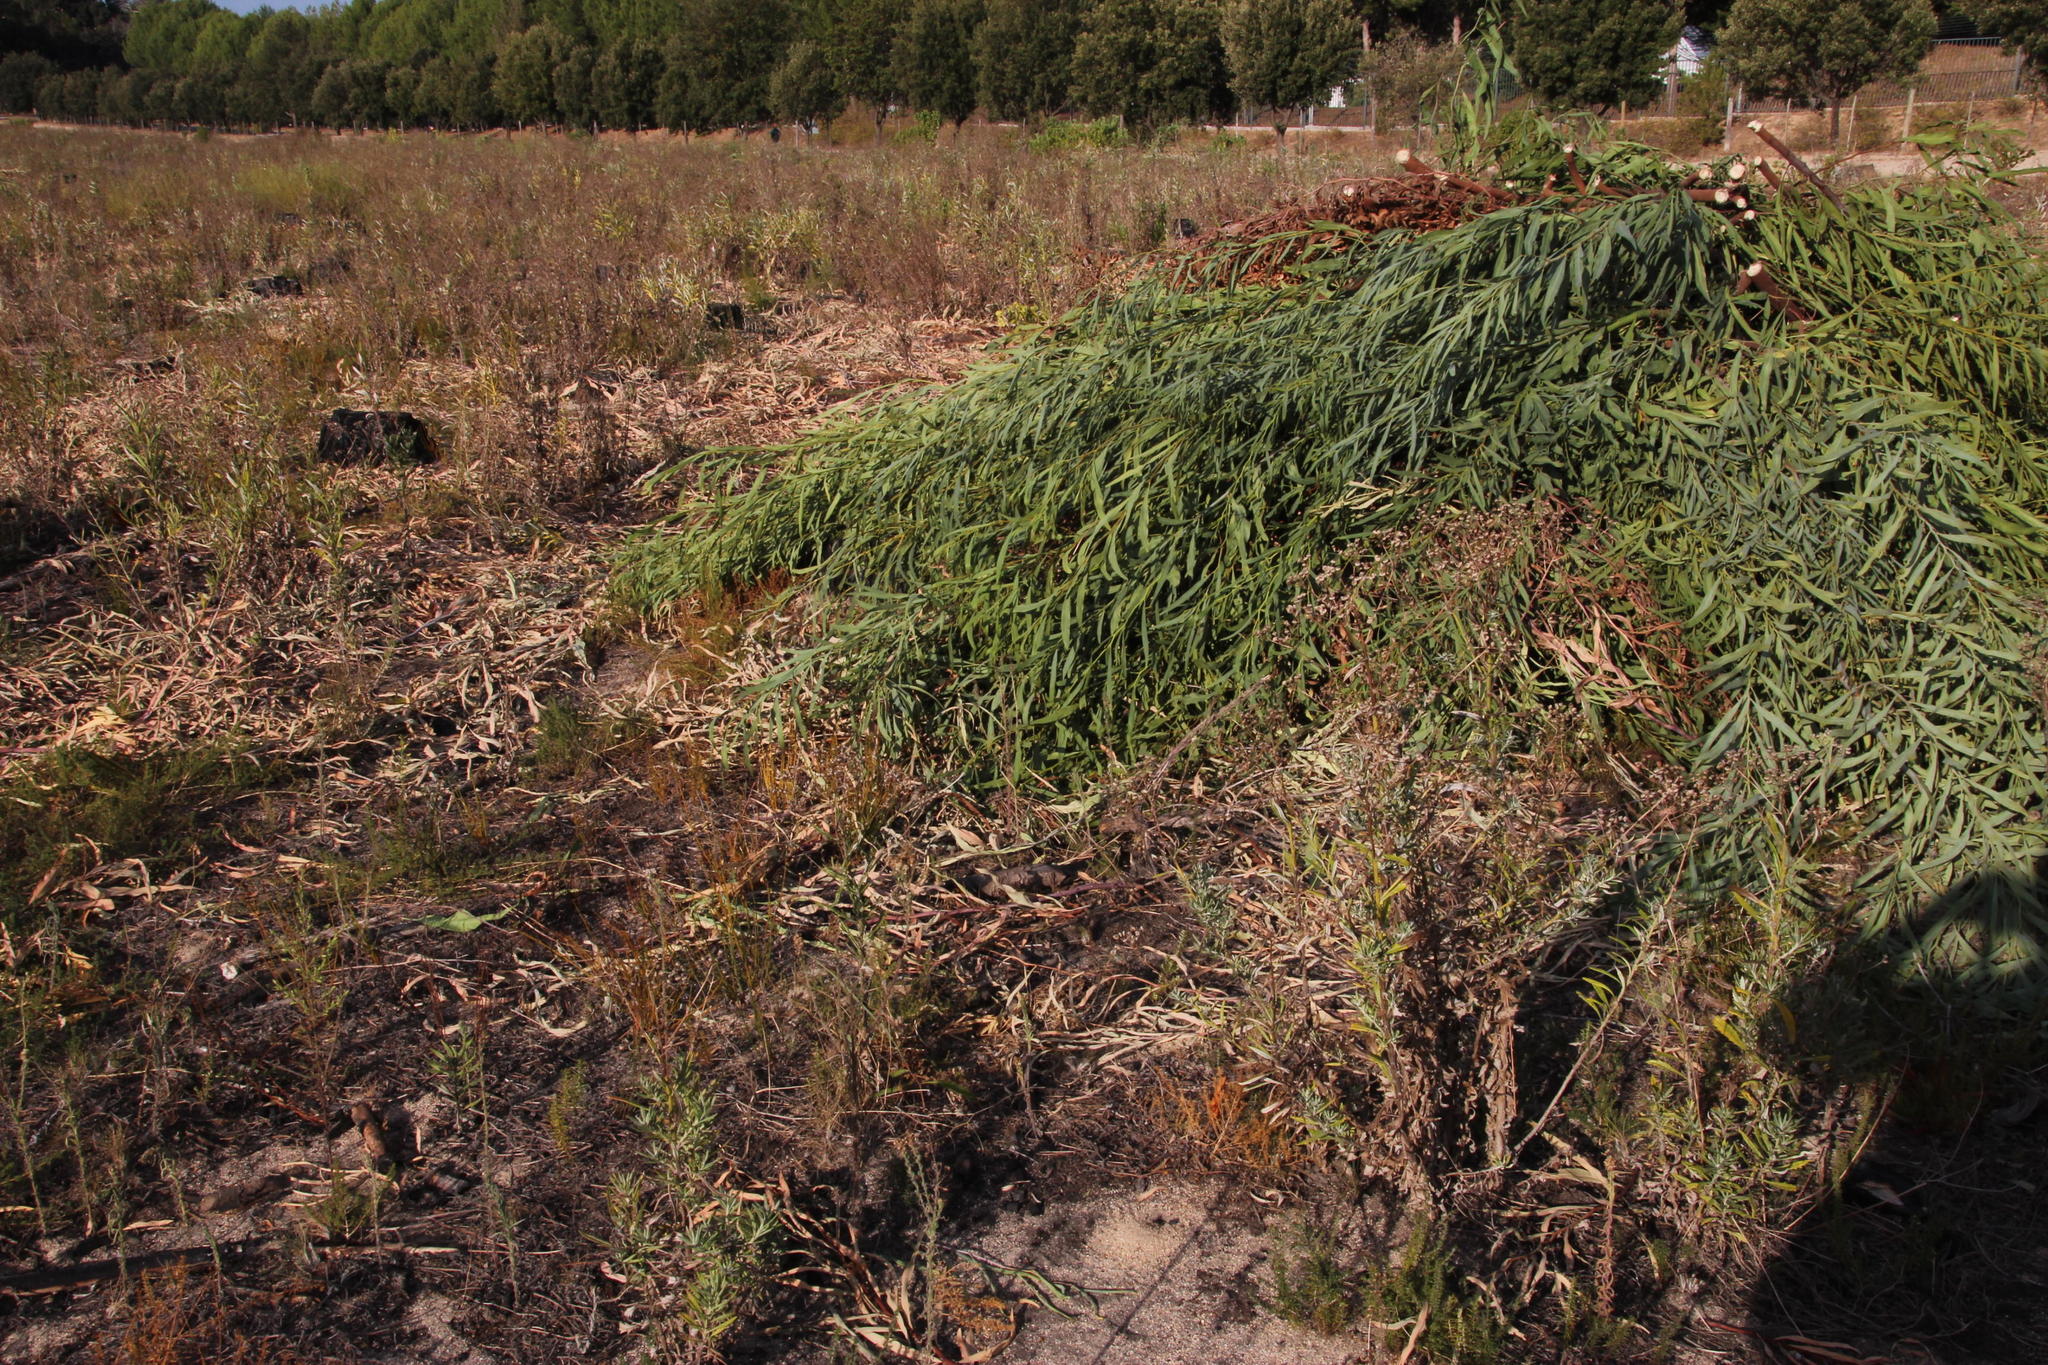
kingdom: Plantae
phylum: Tracheophyta
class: Magnoliopsida
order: Fabales
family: Fabaceae
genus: Acacia
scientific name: Acacia saligna
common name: Orange wattle
